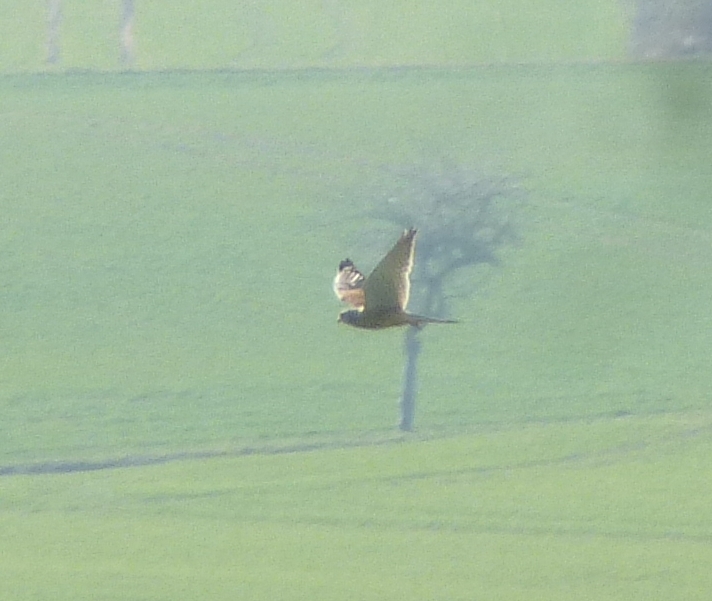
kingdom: Animalia
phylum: Chordata
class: Aves
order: Falconiformes
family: Falconidae
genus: Falco
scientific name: Falco tinnunculus
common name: Common kestrel
